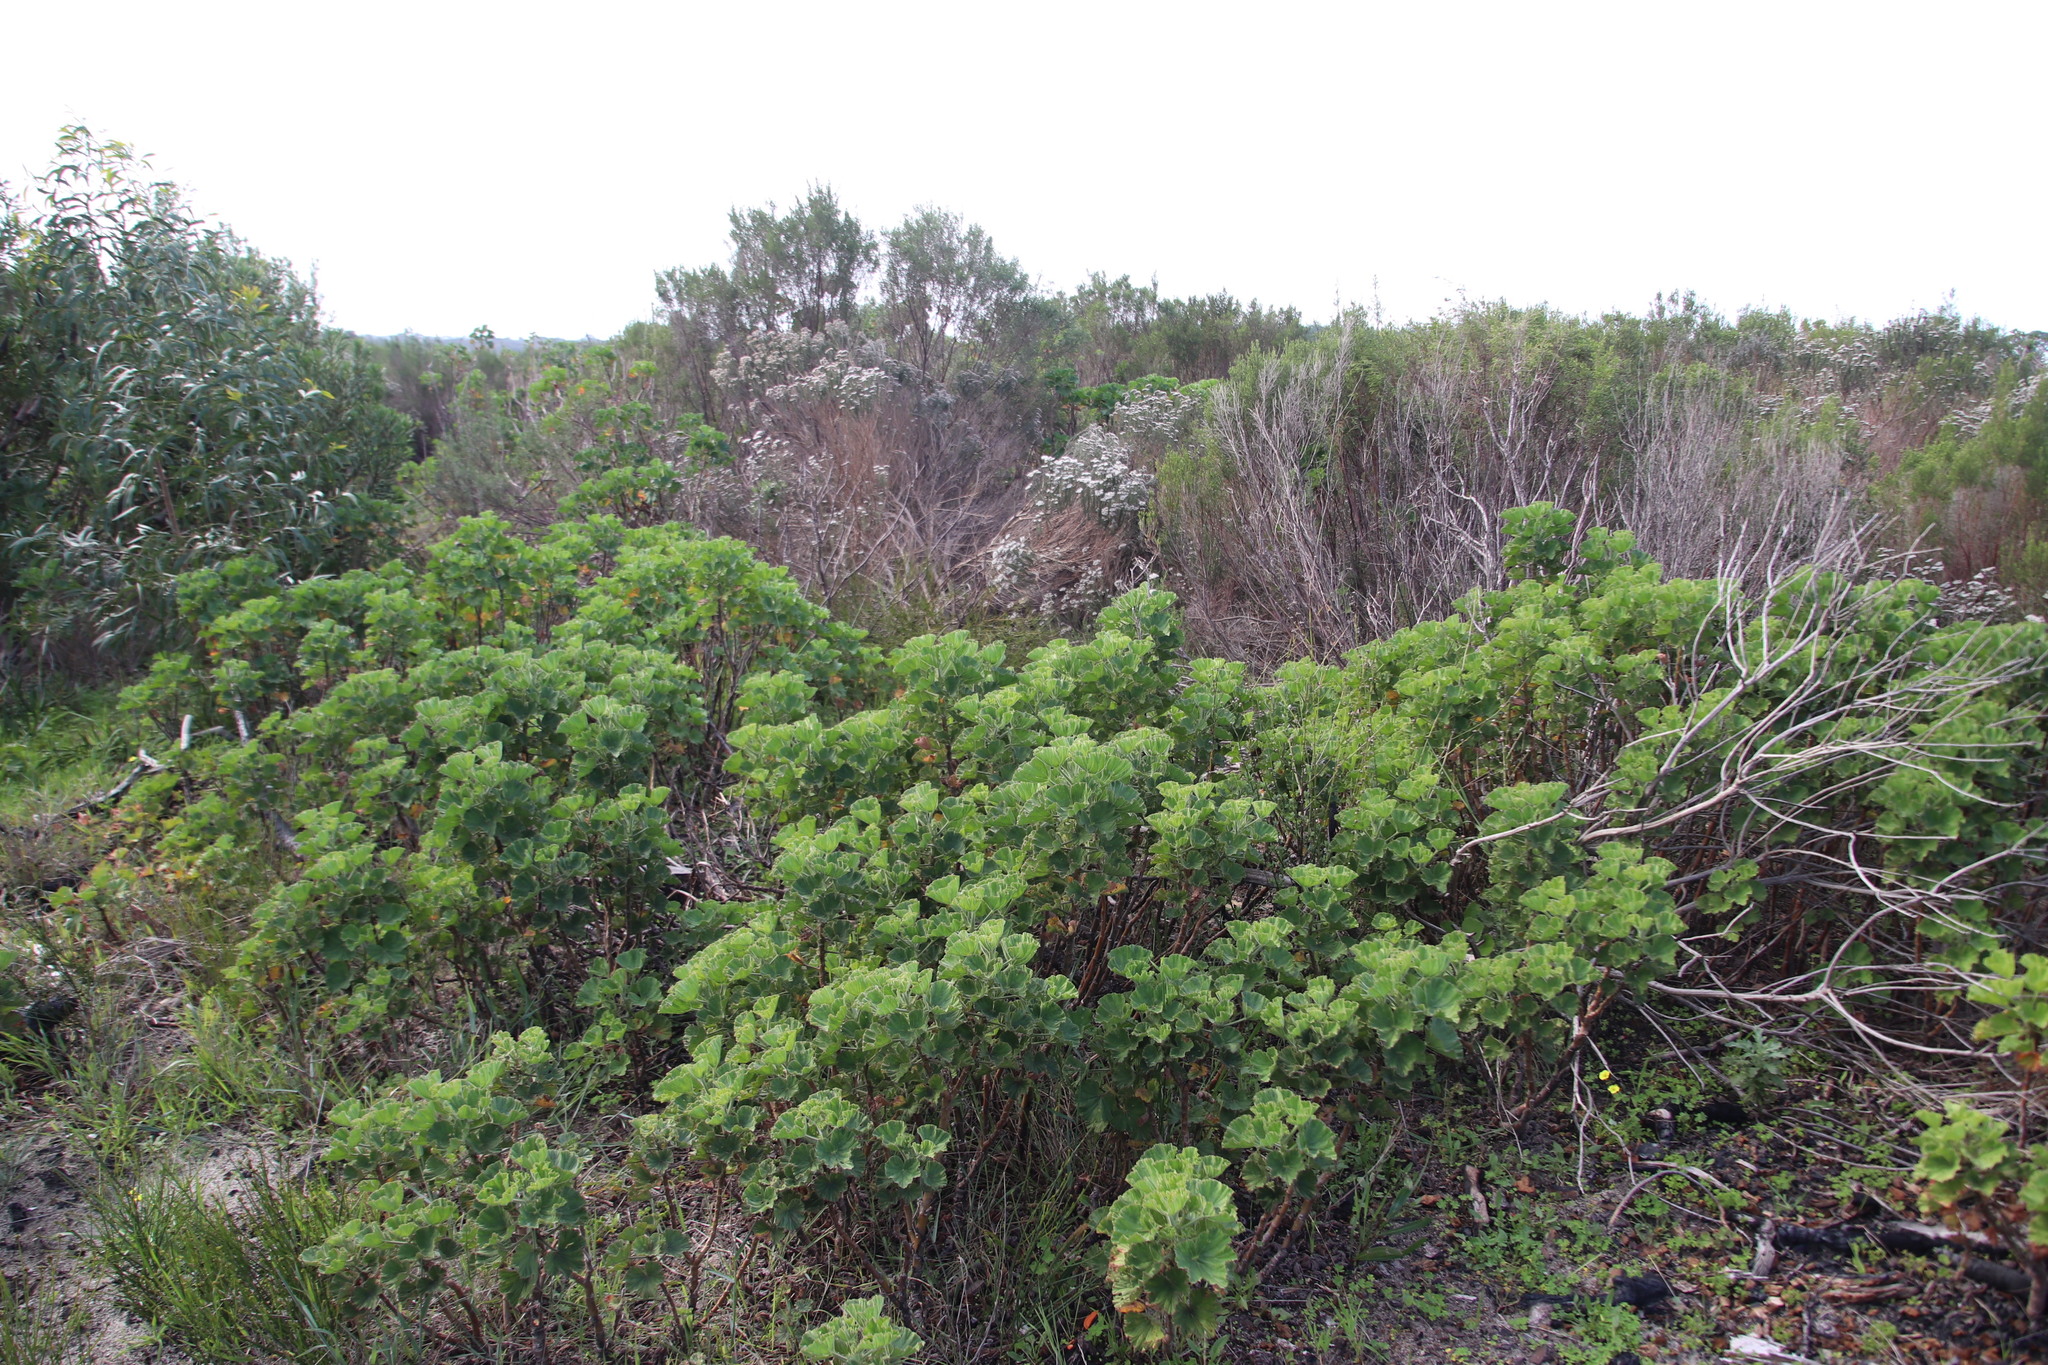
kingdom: Plantae
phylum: Tracheophyta
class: Magnoliopsida
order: Geraniales
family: Geraniaceae
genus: Pelargonium
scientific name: Pelargonium cucullatum
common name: Tree pelargonium
